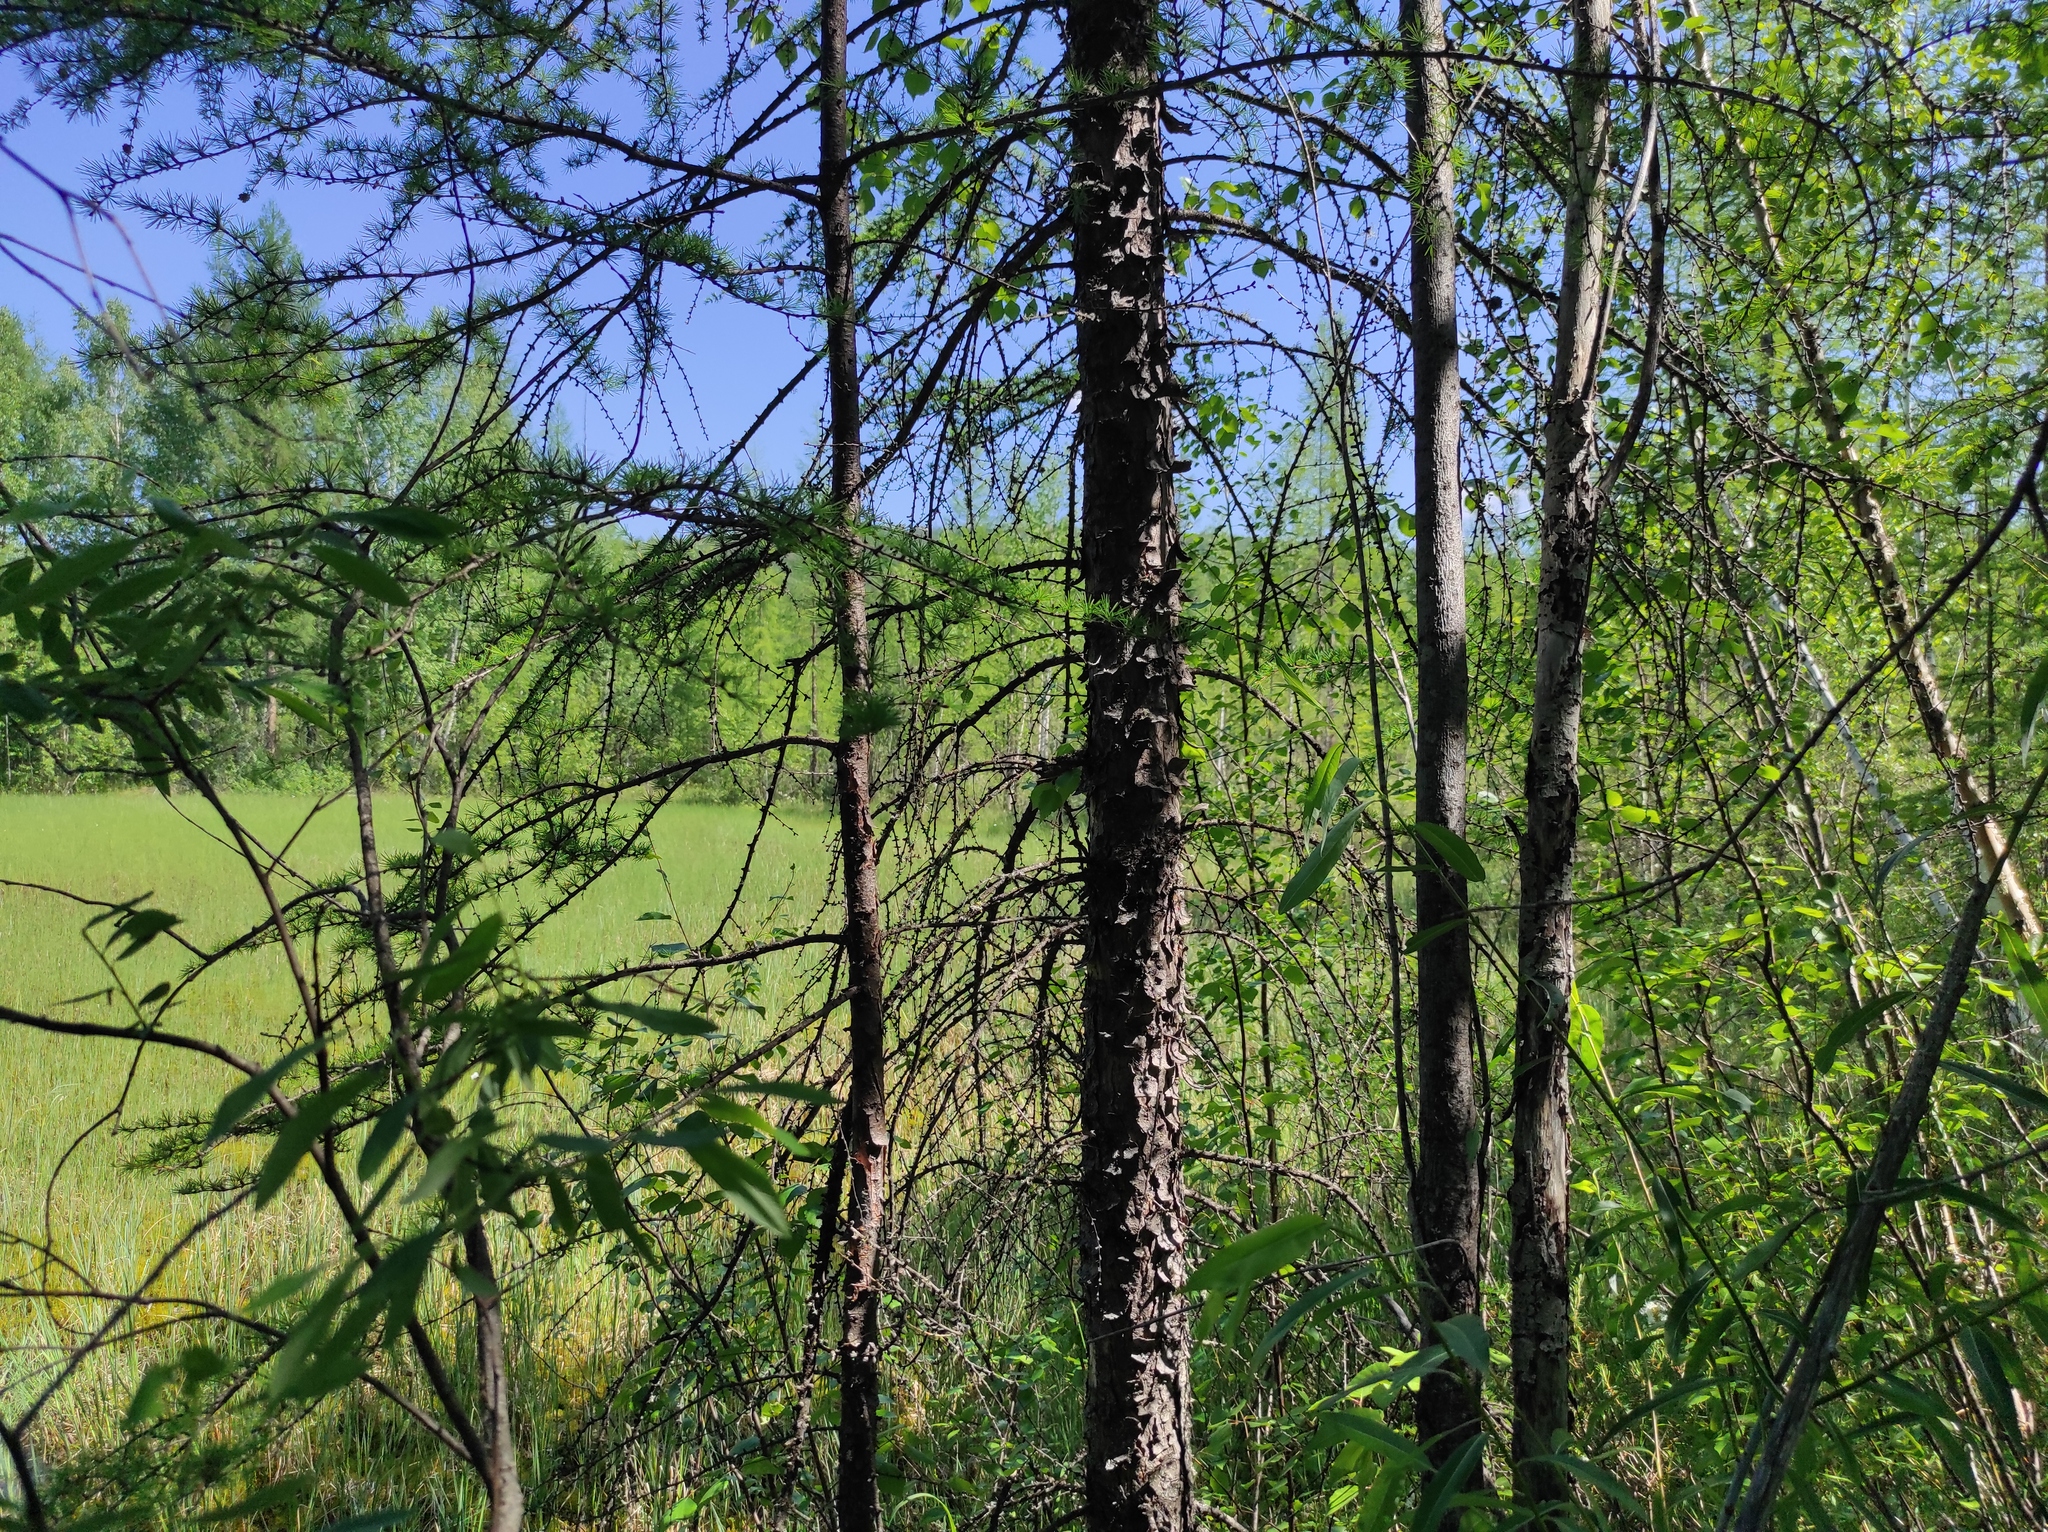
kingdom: Plantae
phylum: Tracheophyta
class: Pinopsida
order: Pinales
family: Pinaceae
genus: Larix
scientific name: Larix gmelinii
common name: Dahurian larch
